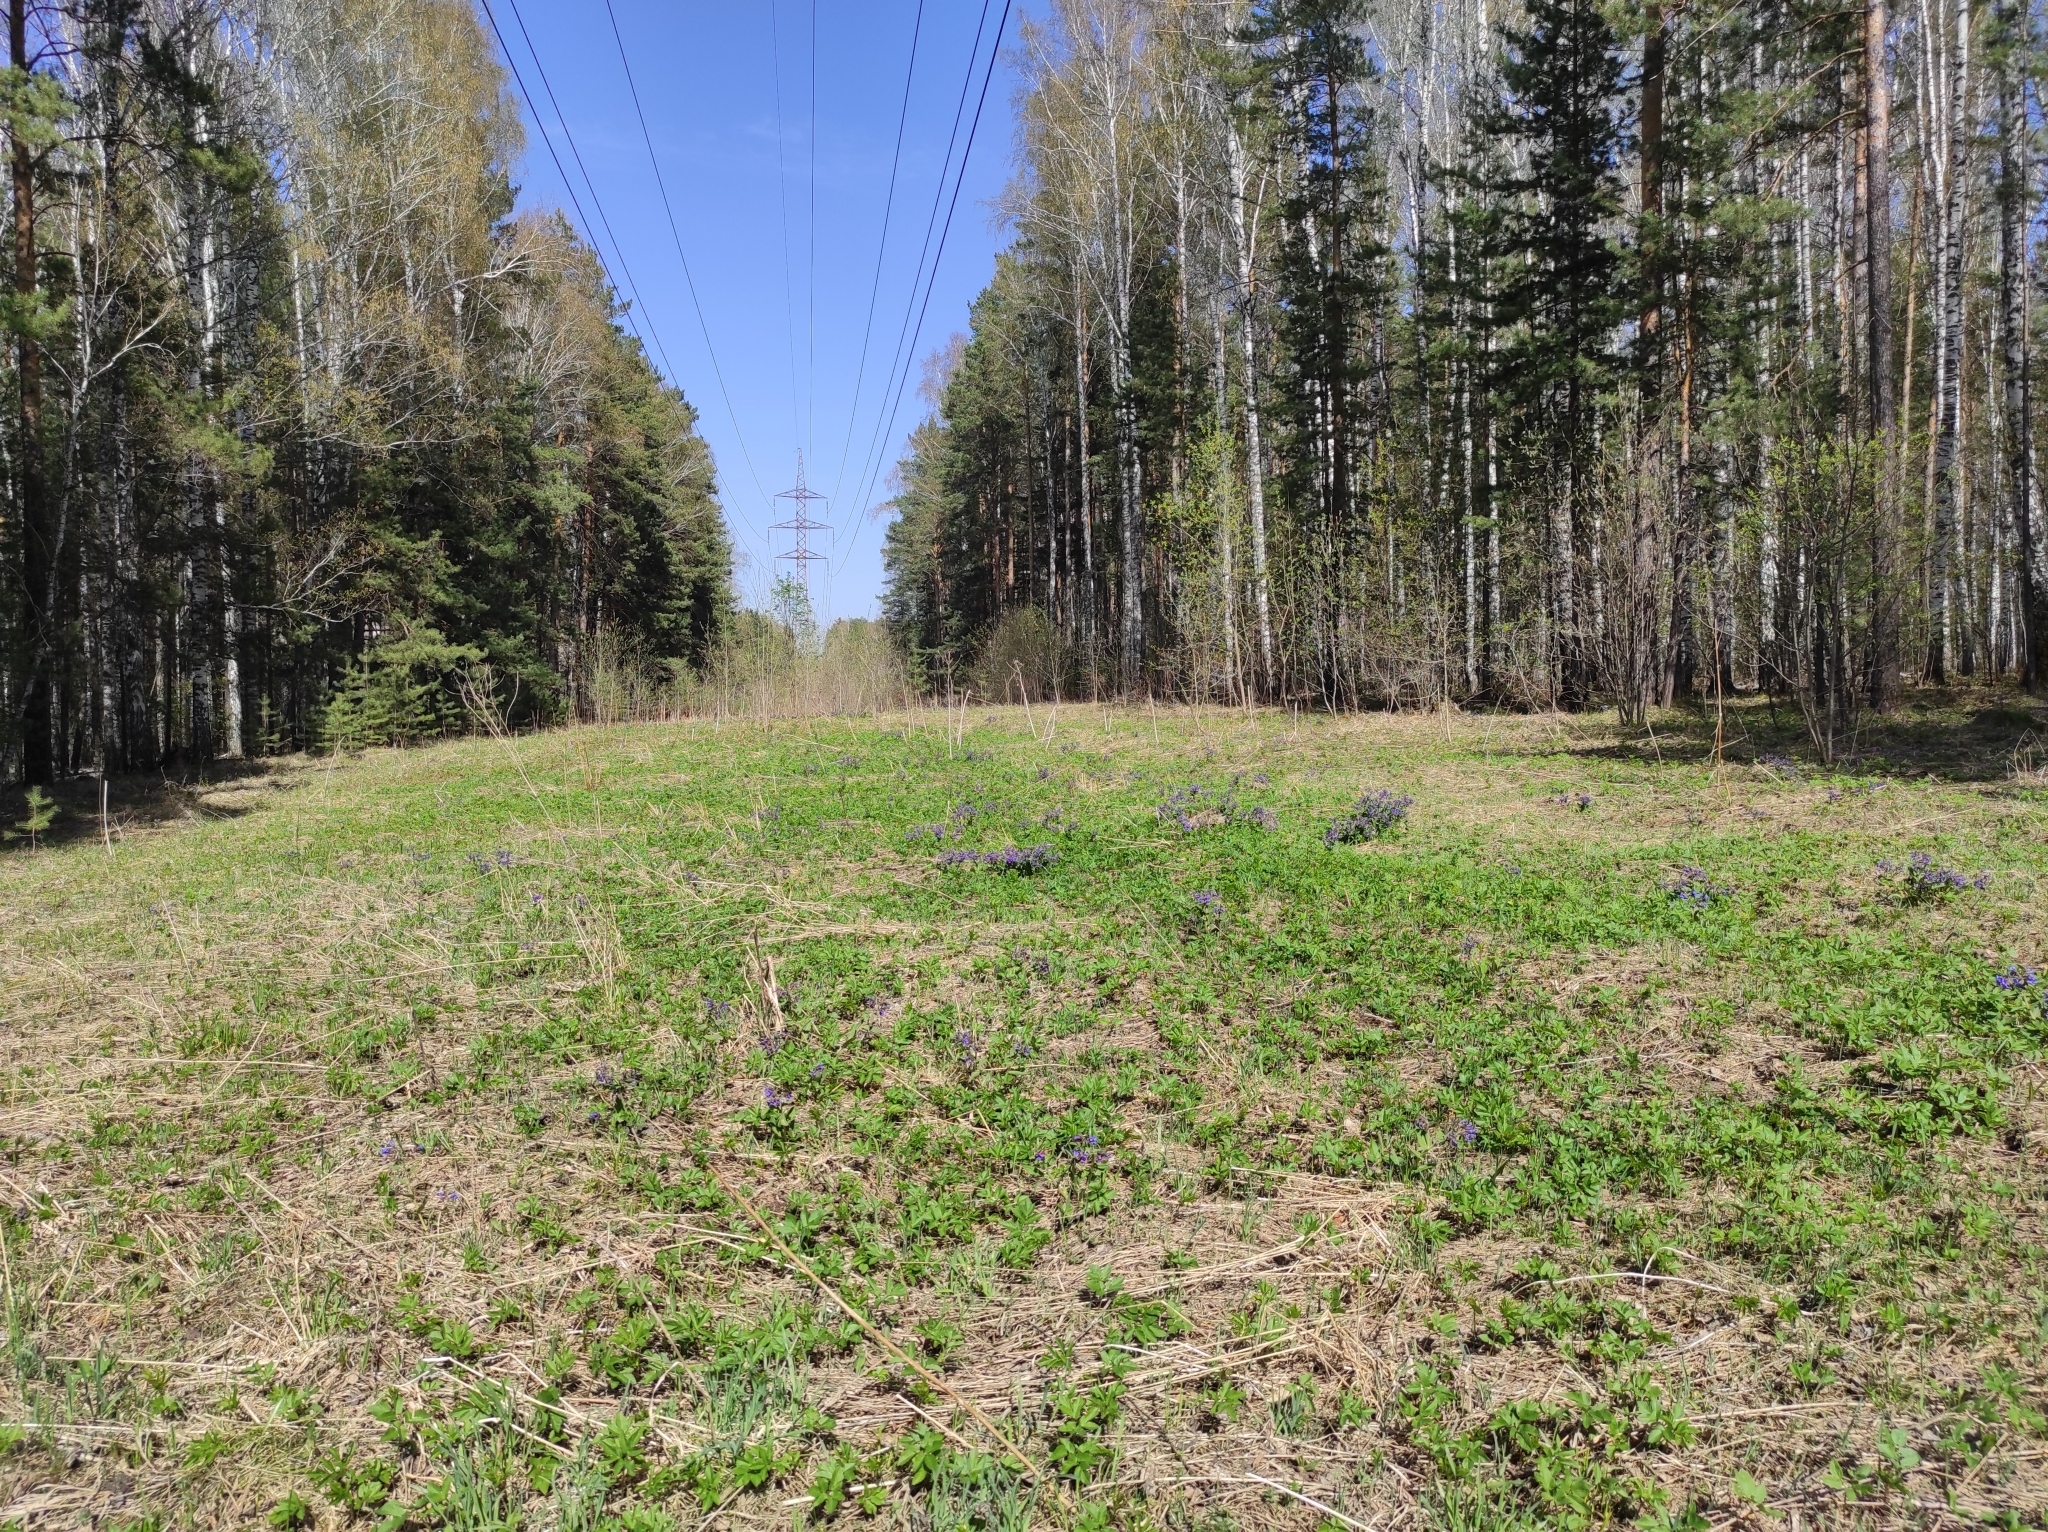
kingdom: Plantae
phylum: Tracheophyta
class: Magnoliopsida
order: Boraginales
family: Boraginaceae
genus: Pulmonaria
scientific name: Pulmonaria mollis
